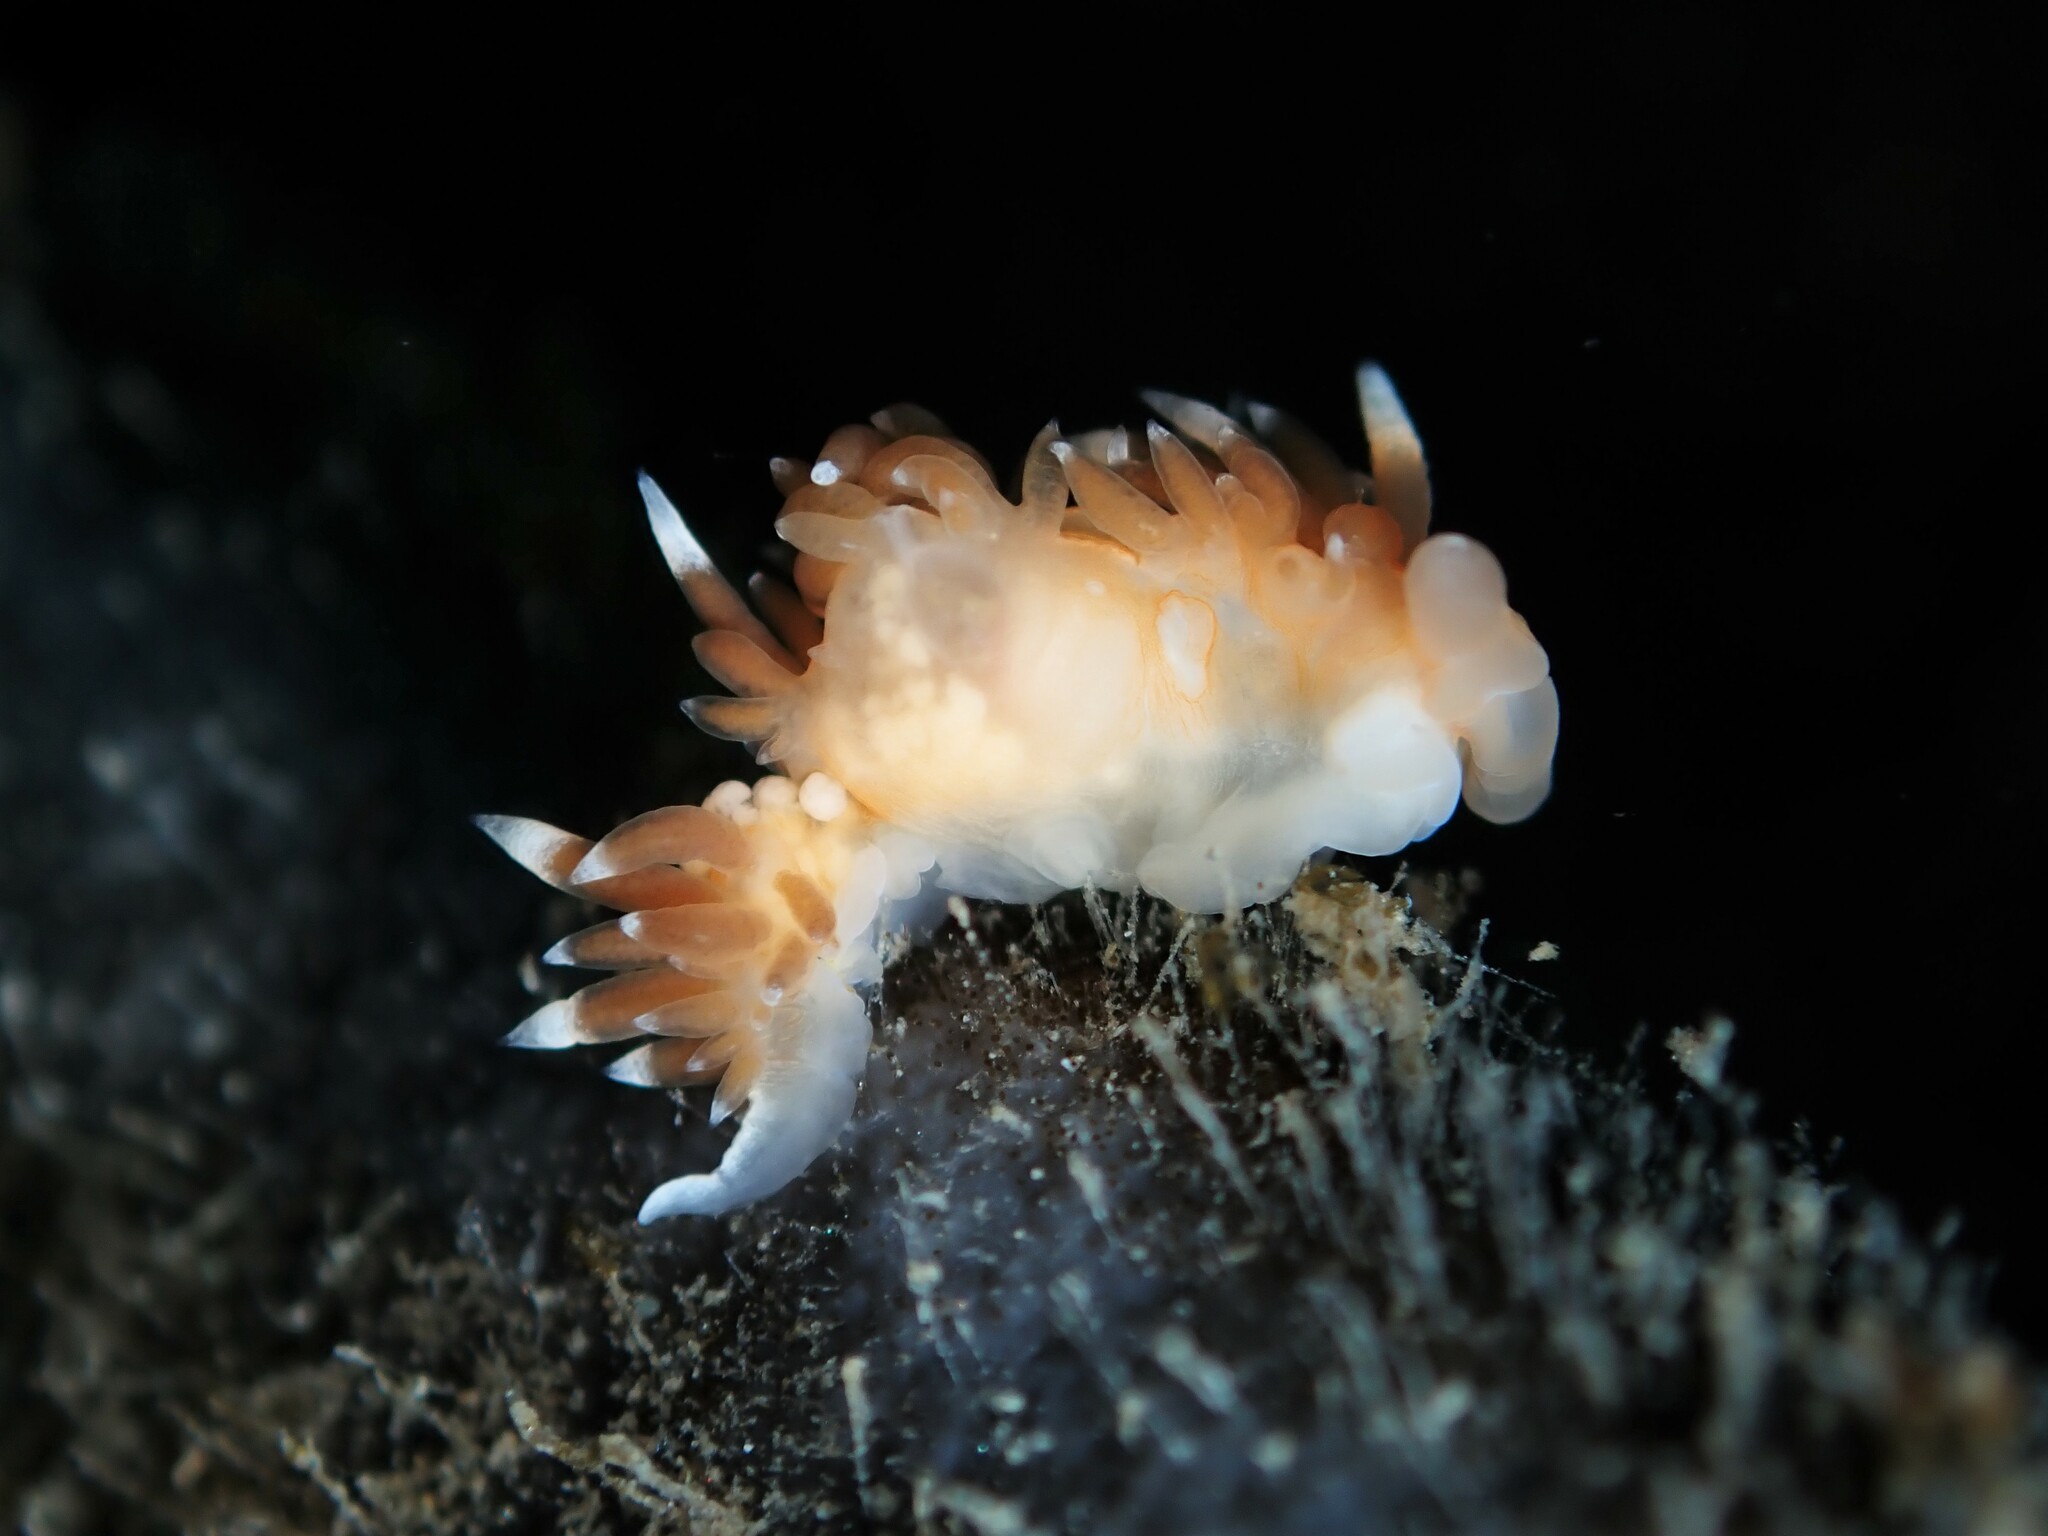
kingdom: Animalia
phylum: Mollusca
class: Gastropoda
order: Nudibranchia
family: Facelinidae
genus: Phidiana
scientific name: Phidiana milleri
